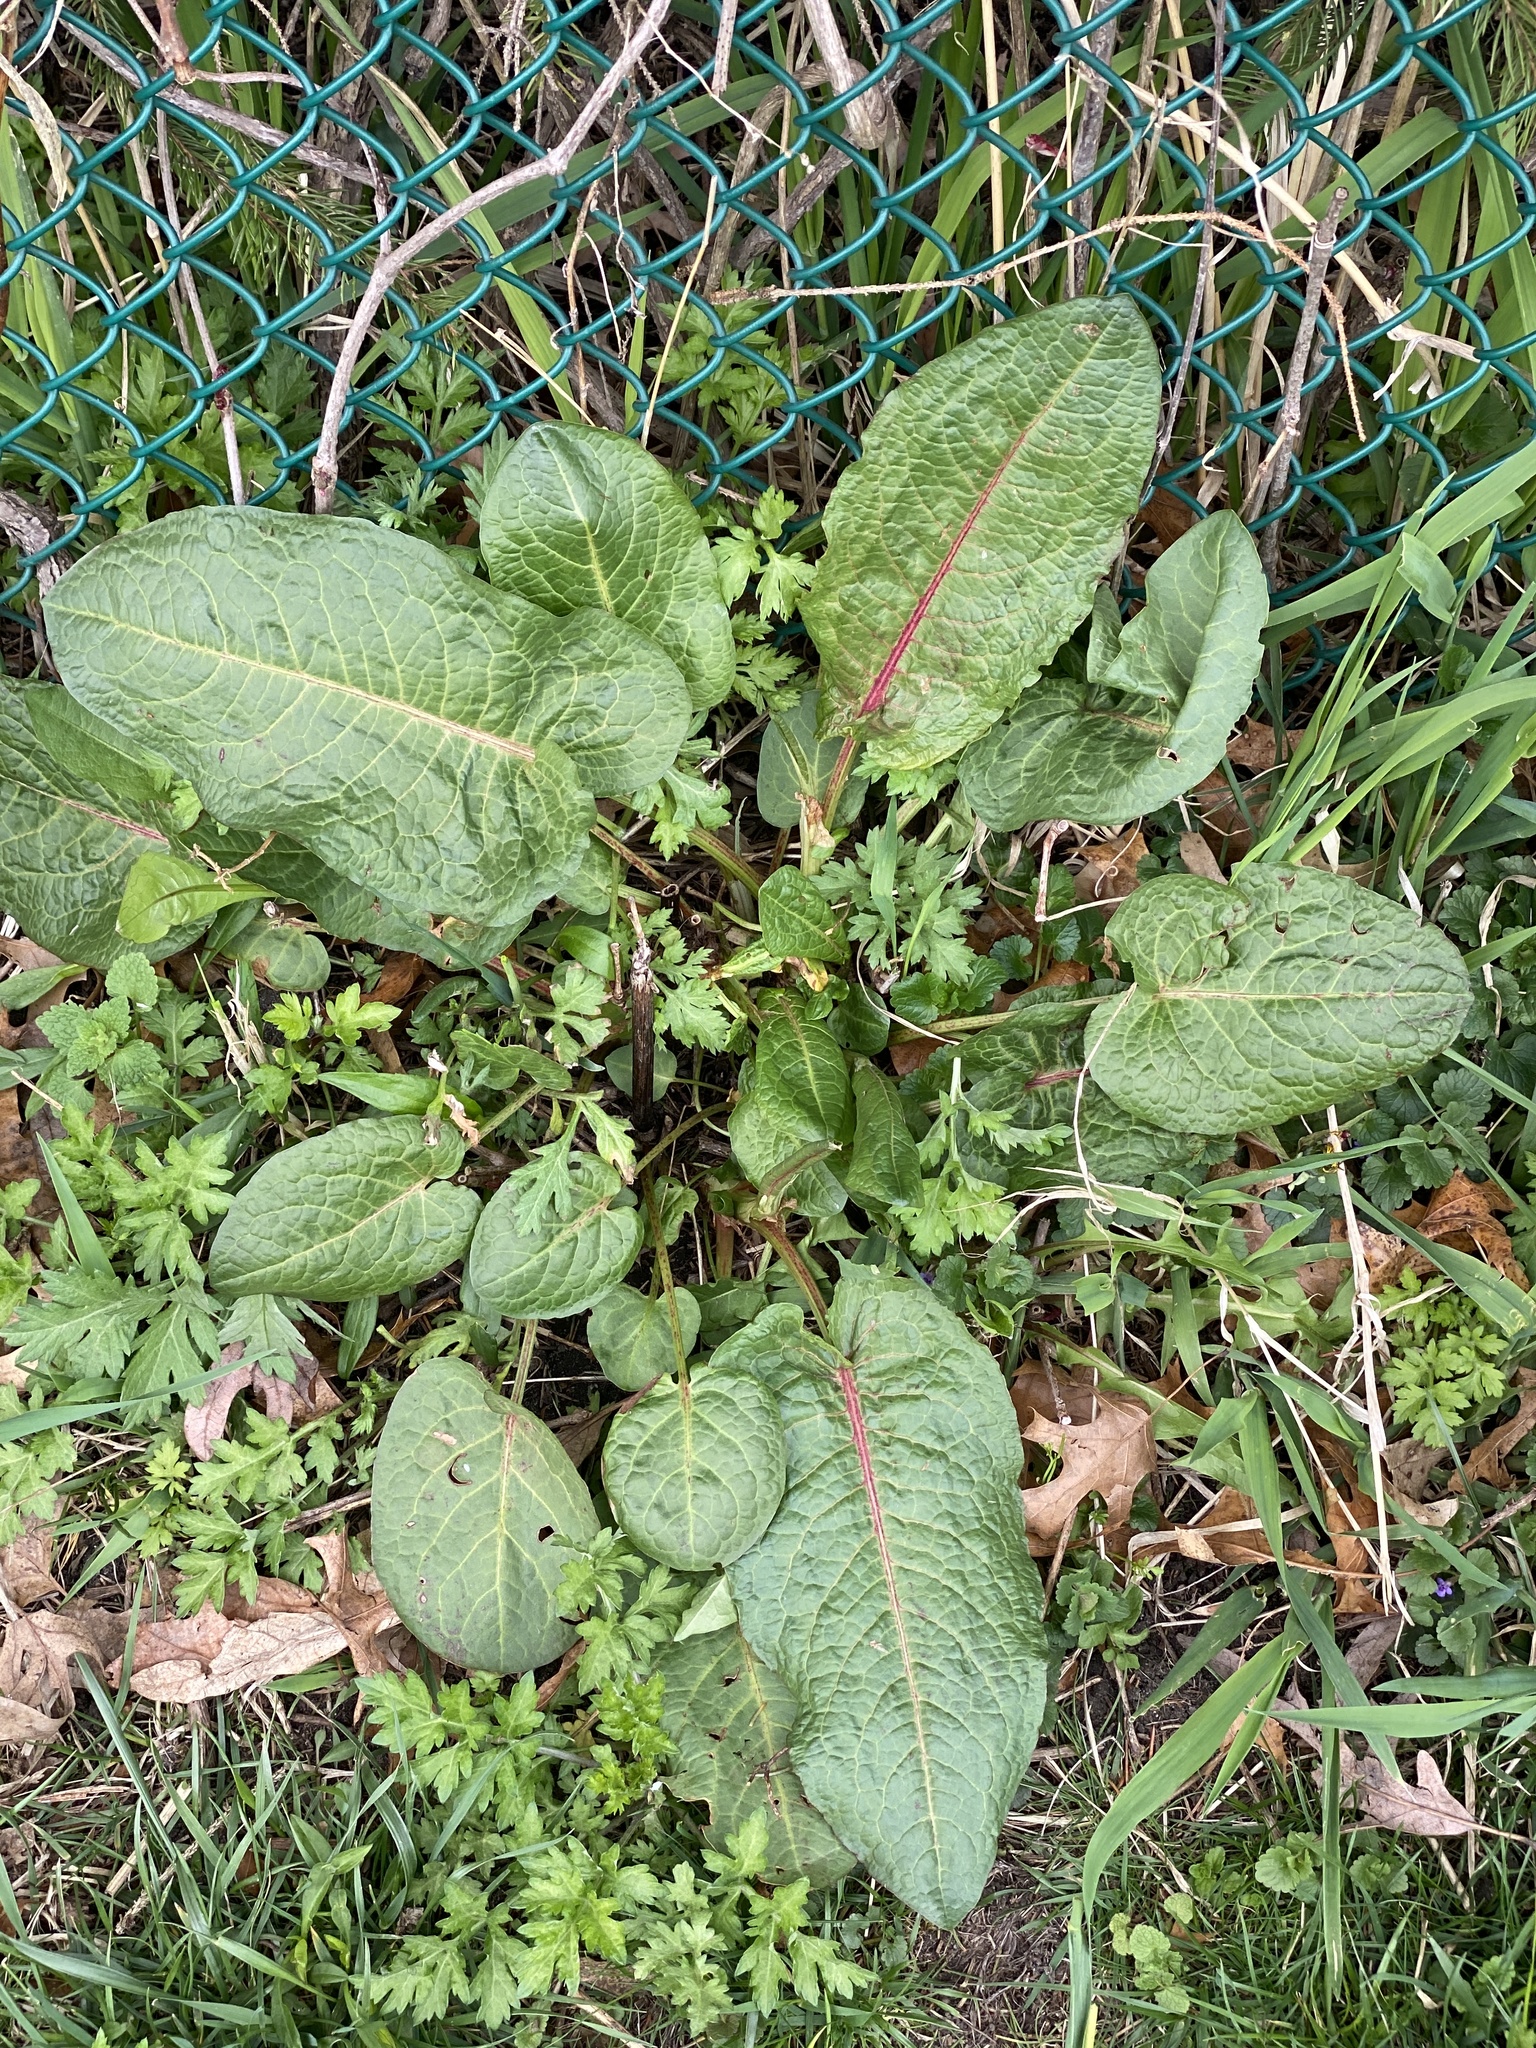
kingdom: Plantae
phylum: Tracheophyta
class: Magnoliopsida
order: Caryophyllales
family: Polygonaceae
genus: Rumex
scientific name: Rumex obtusifolius
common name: Bitter dock
